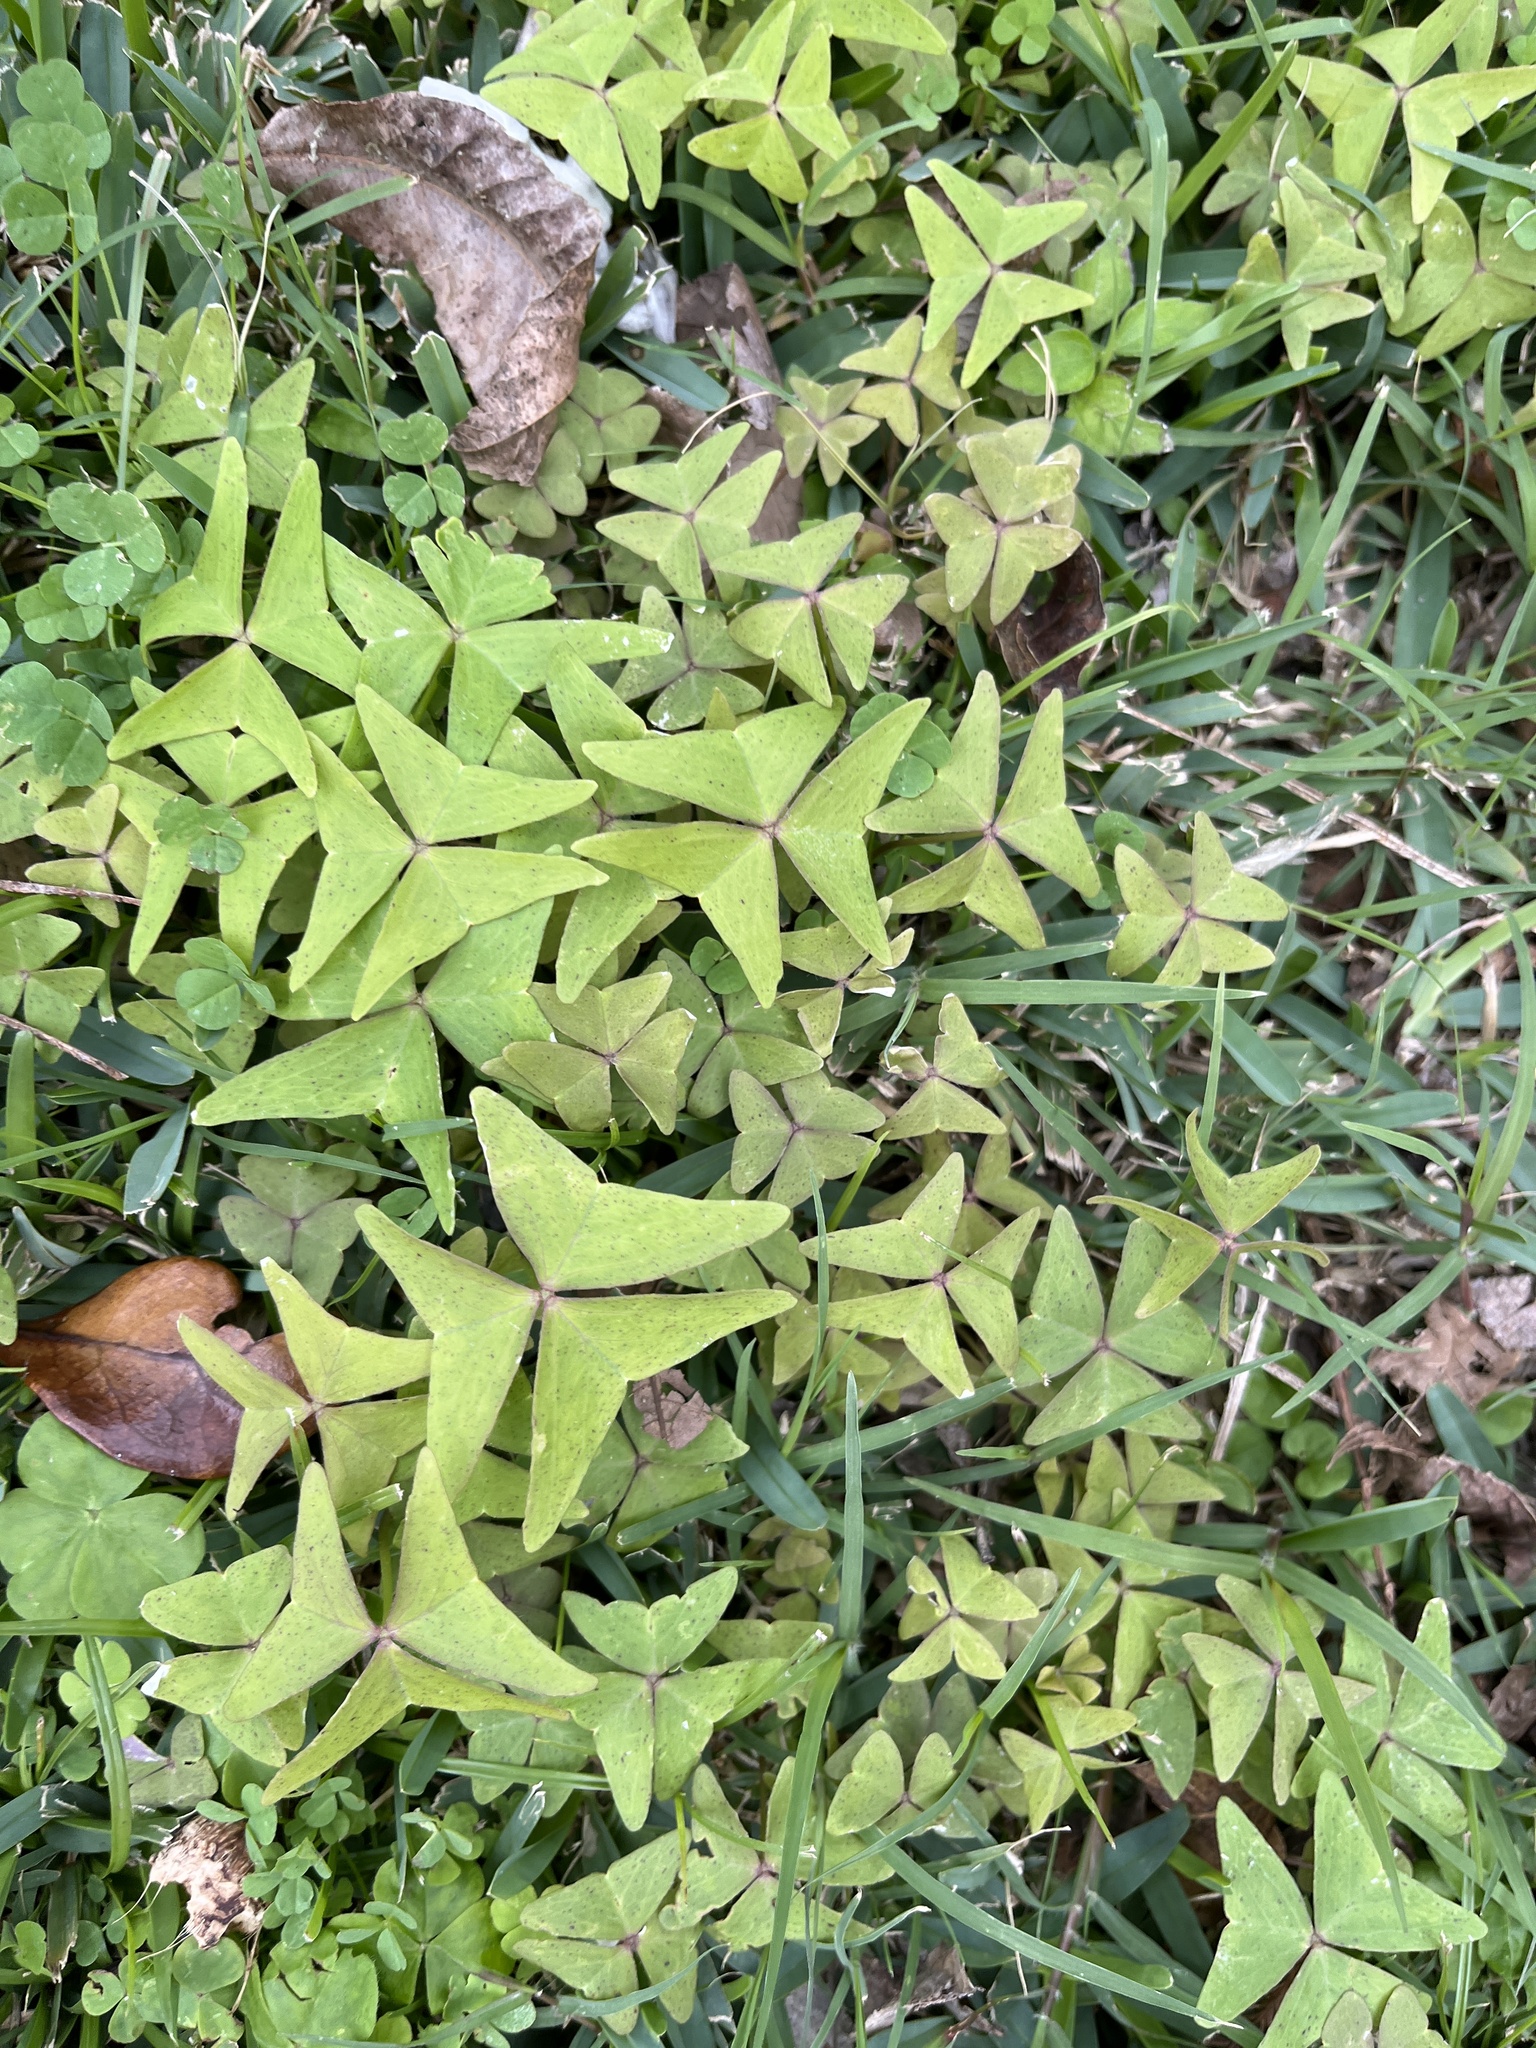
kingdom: Plantae
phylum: Tracheophyta
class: Magnoliopsida
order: Oxalidales
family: Oxalidaceae
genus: Oxalis
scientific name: Oxalis intermedia
